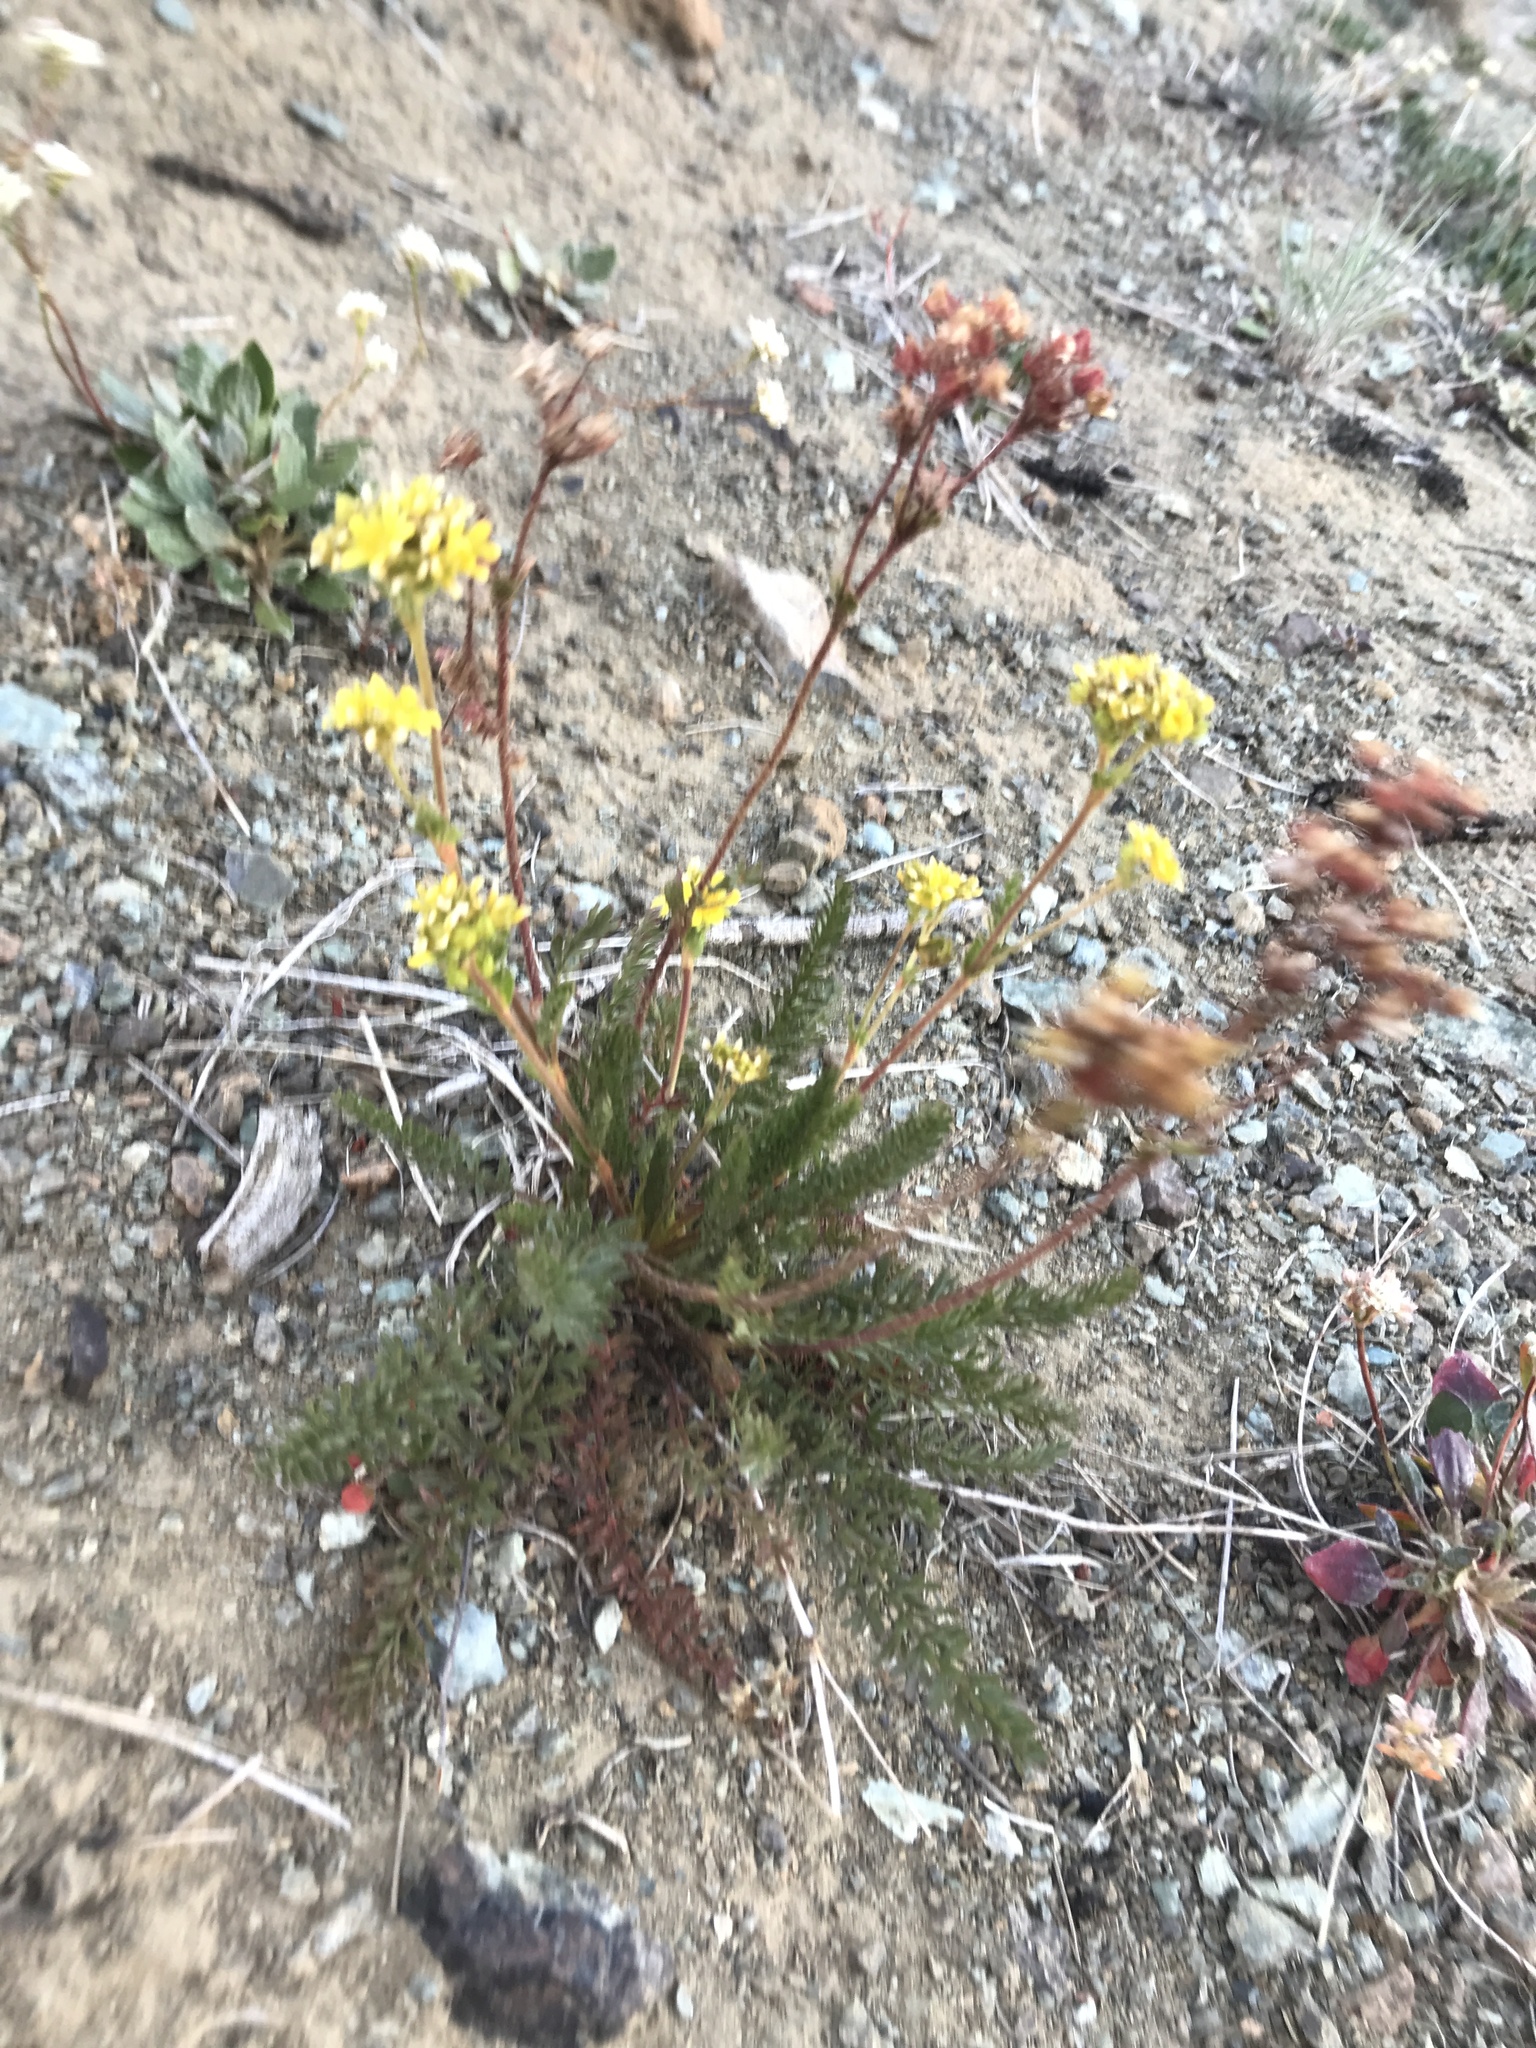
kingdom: Plantae
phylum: Tracheophyta
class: Magnoliopsida
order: Rosales
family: Rosaceae
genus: Potentilla
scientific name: Potentilla tweedyi
